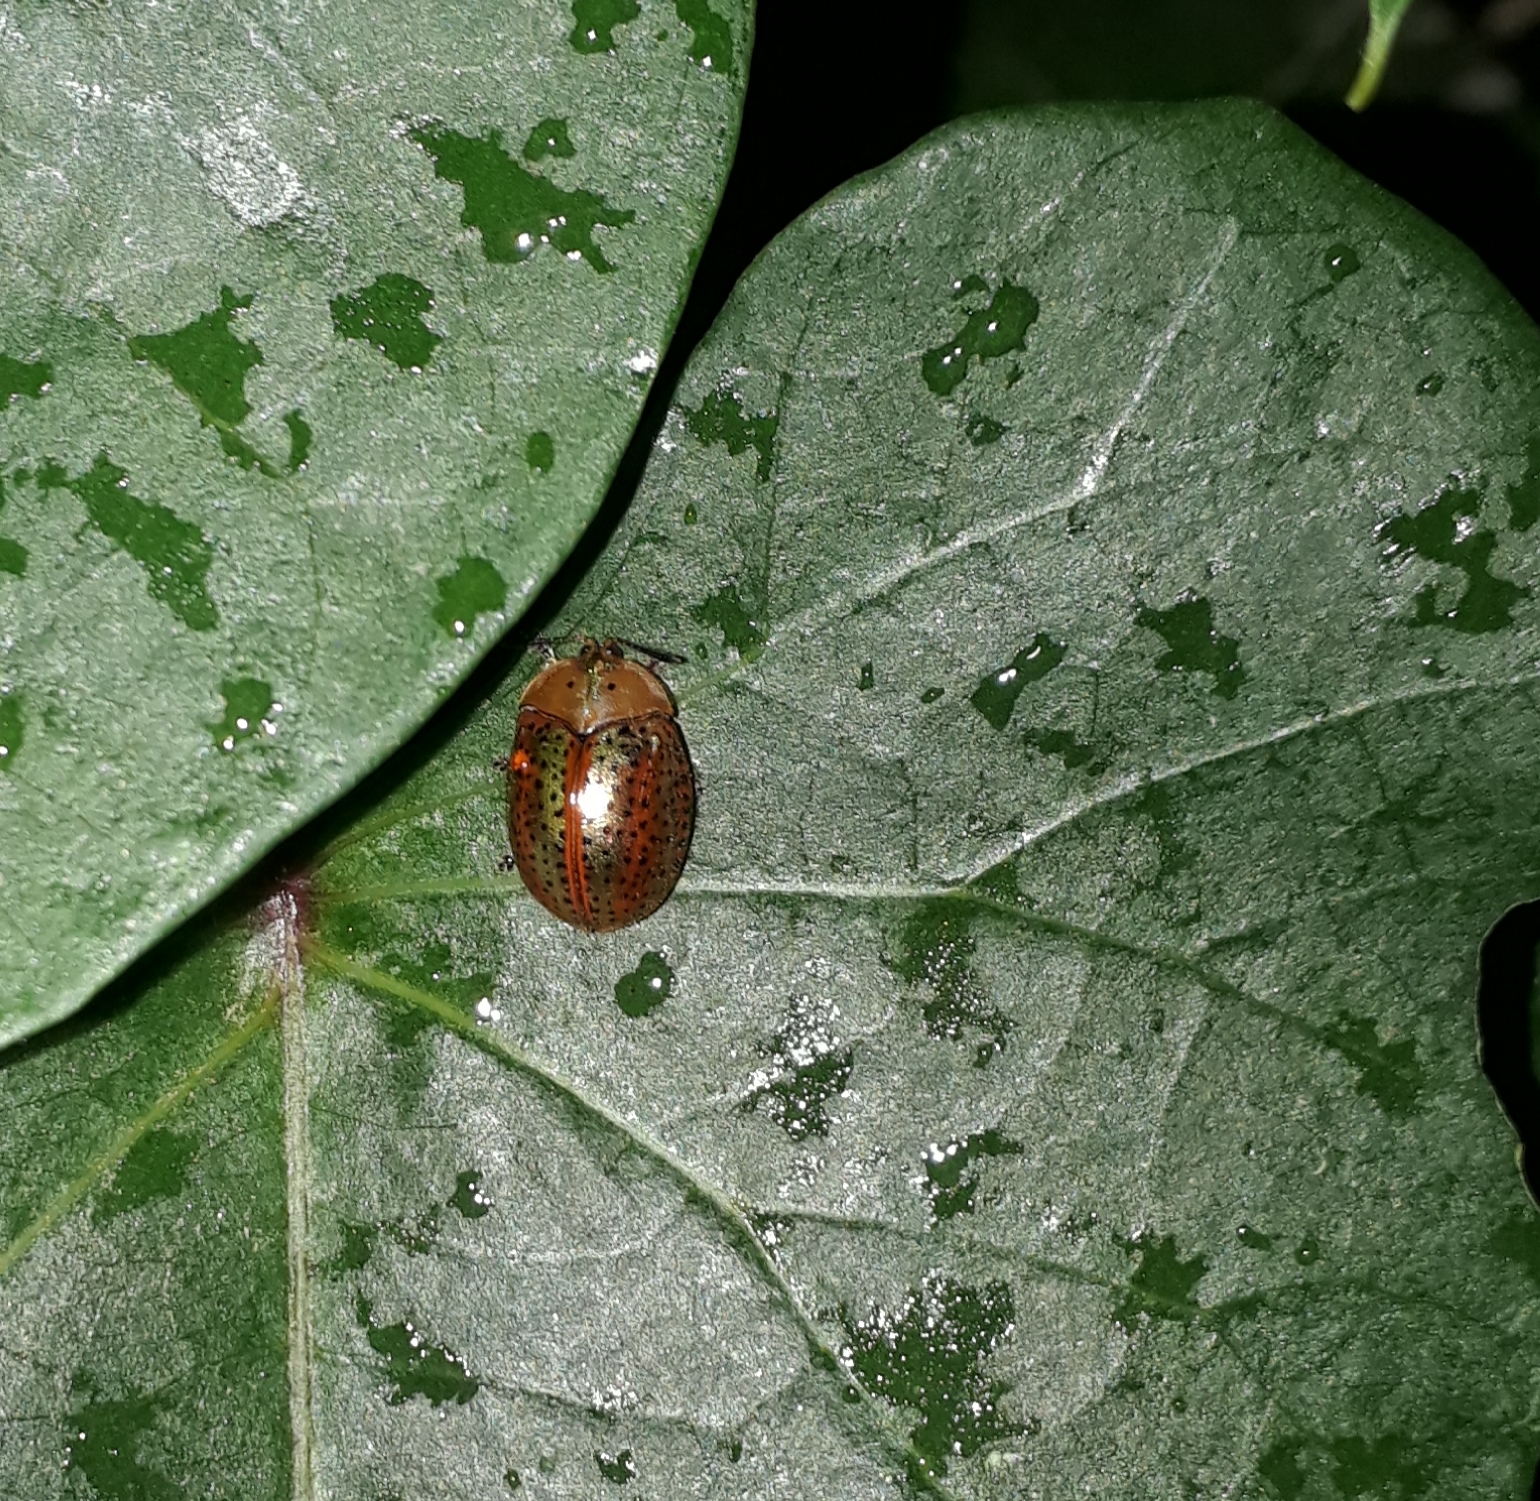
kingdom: Animalia
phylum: Arthropoda
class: Insecta
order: Coleoptera
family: Chrysomelidae
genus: Chelymorpha
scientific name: Chelymorpha cribraria
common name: Tortoise beetle
